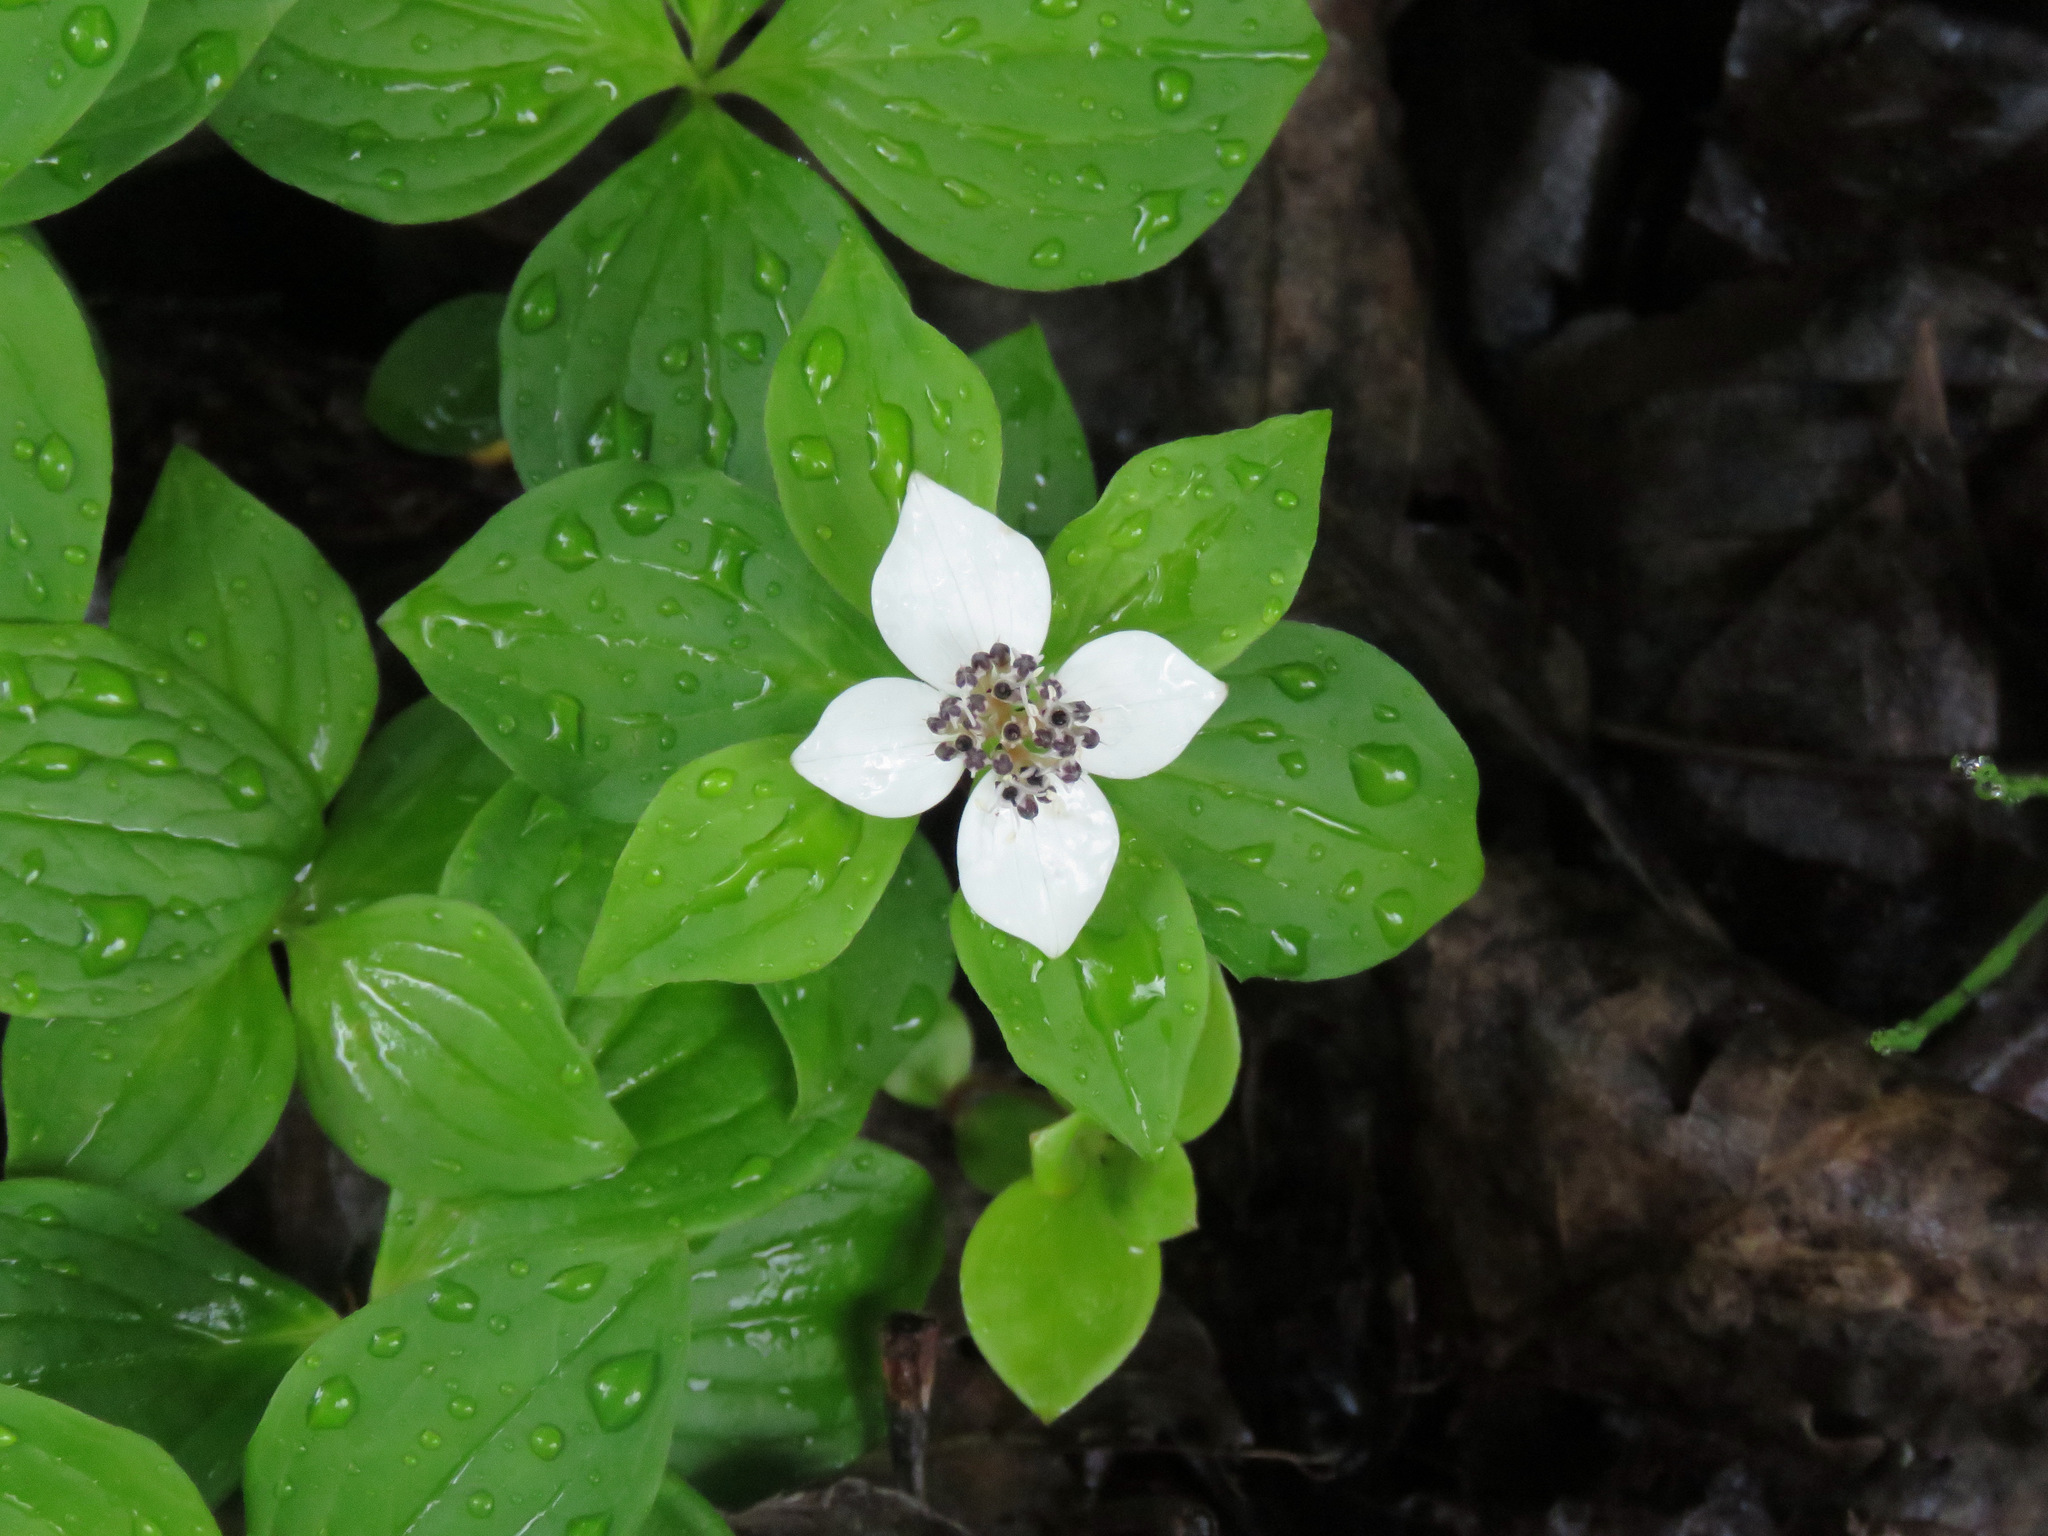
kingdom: Plantae
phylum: Tracheophyta
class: Magnoliopsida
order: Cornales
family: Cornaceae
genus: Cornus
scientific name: Cornus unalaschkensis
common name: Alaska bunchberry
